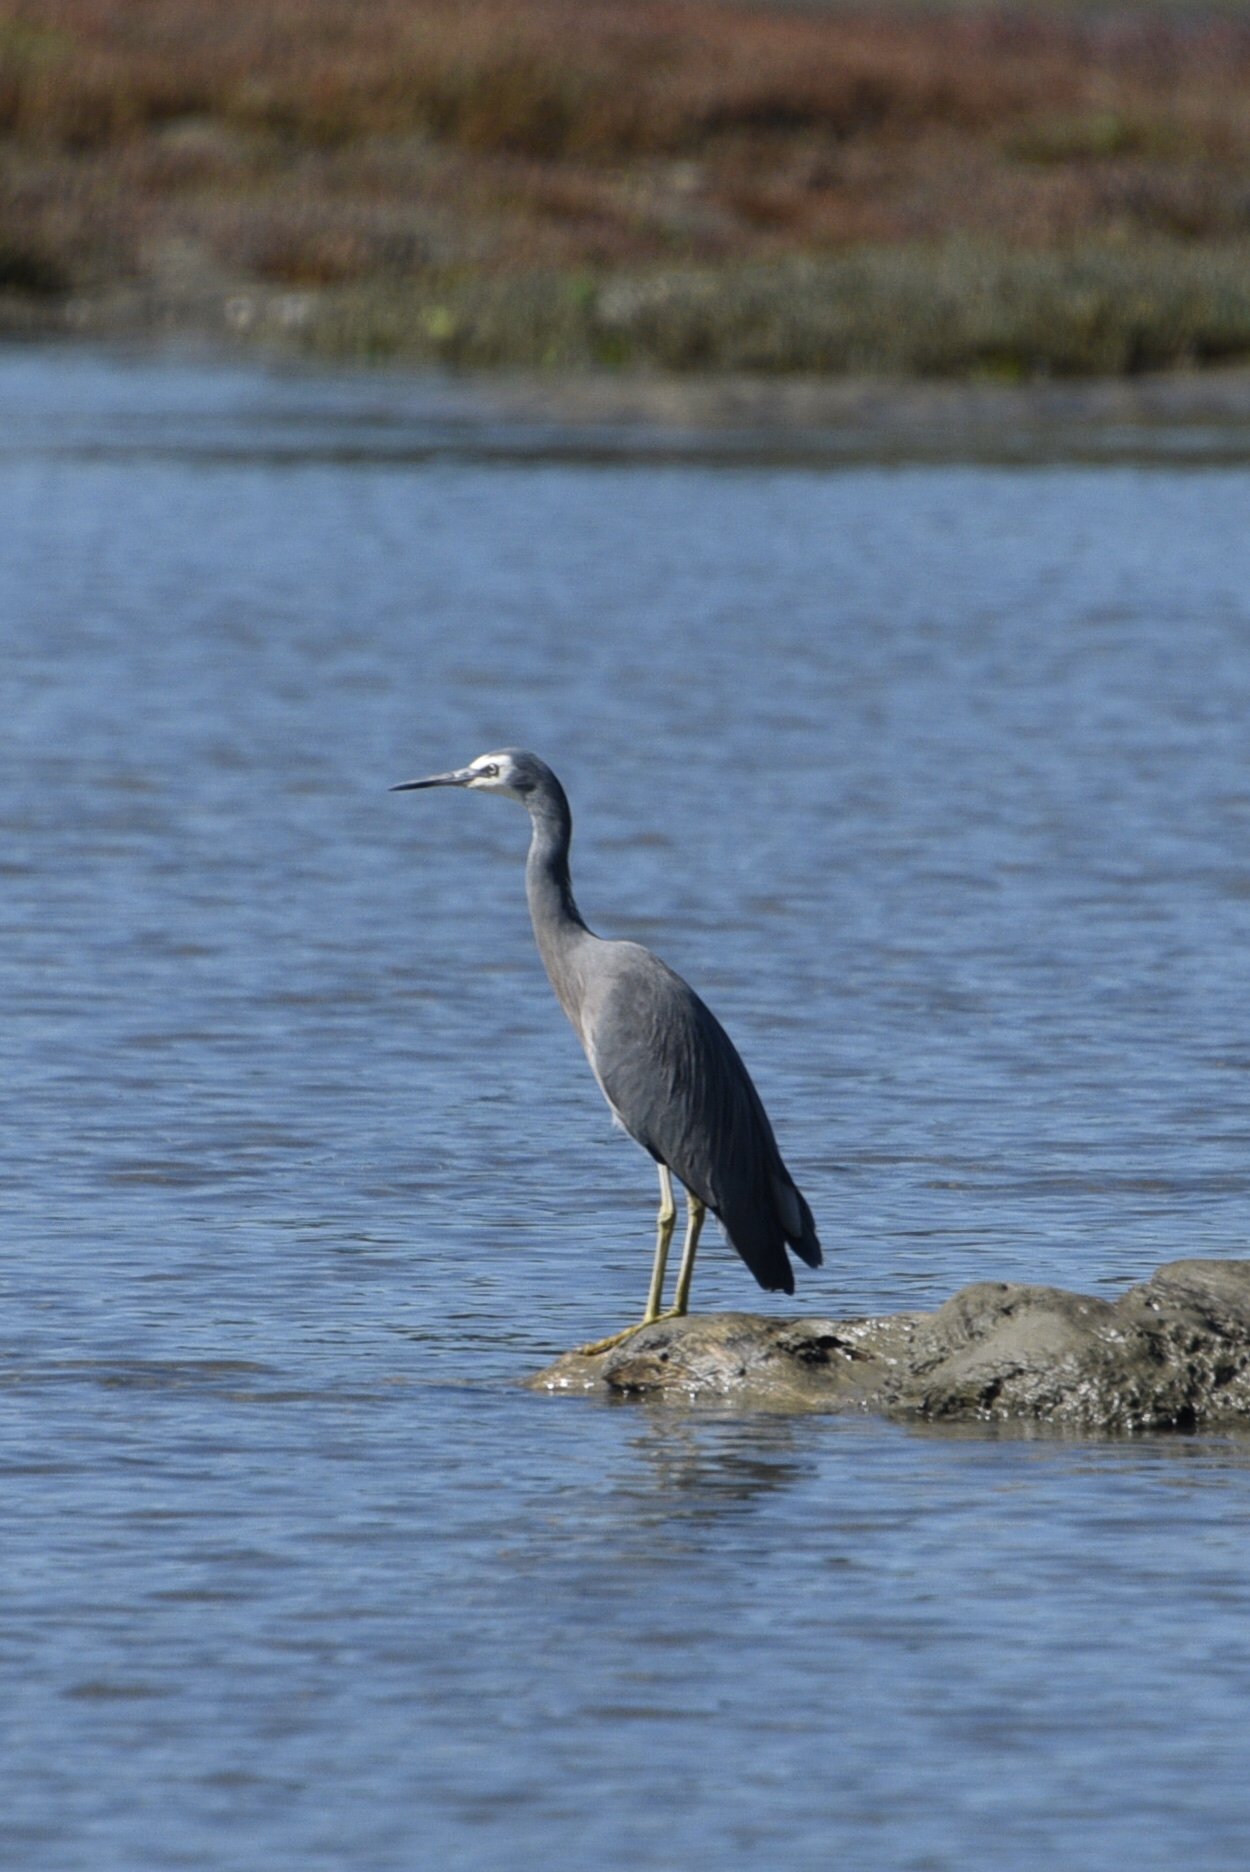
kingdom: Animalia
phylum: Chordata
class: Aves
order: Pelecaniformes
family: Ardeidae
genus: Egretta
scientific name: Egretta novaehollandiae
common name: White-faced heron
